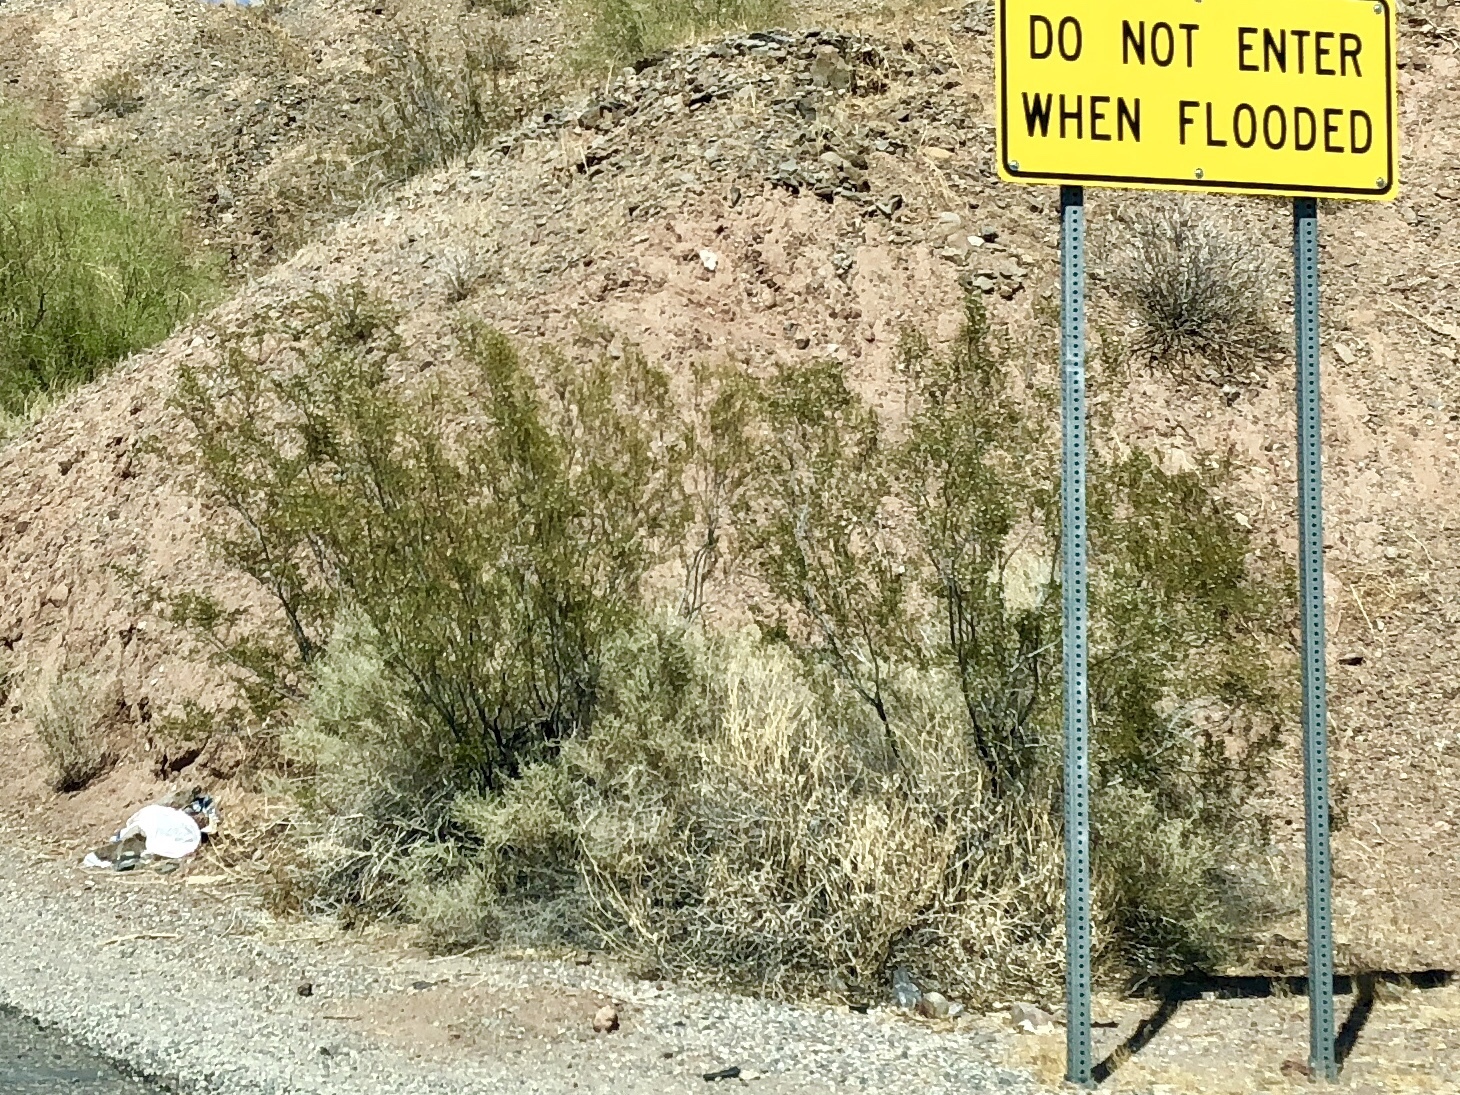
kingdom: Plantae
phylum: Tracheophyta
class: Magnoliopsida
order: Zygophyllales
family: Zygophyllaceae
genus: Larrea
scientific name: Larrea tridentata
